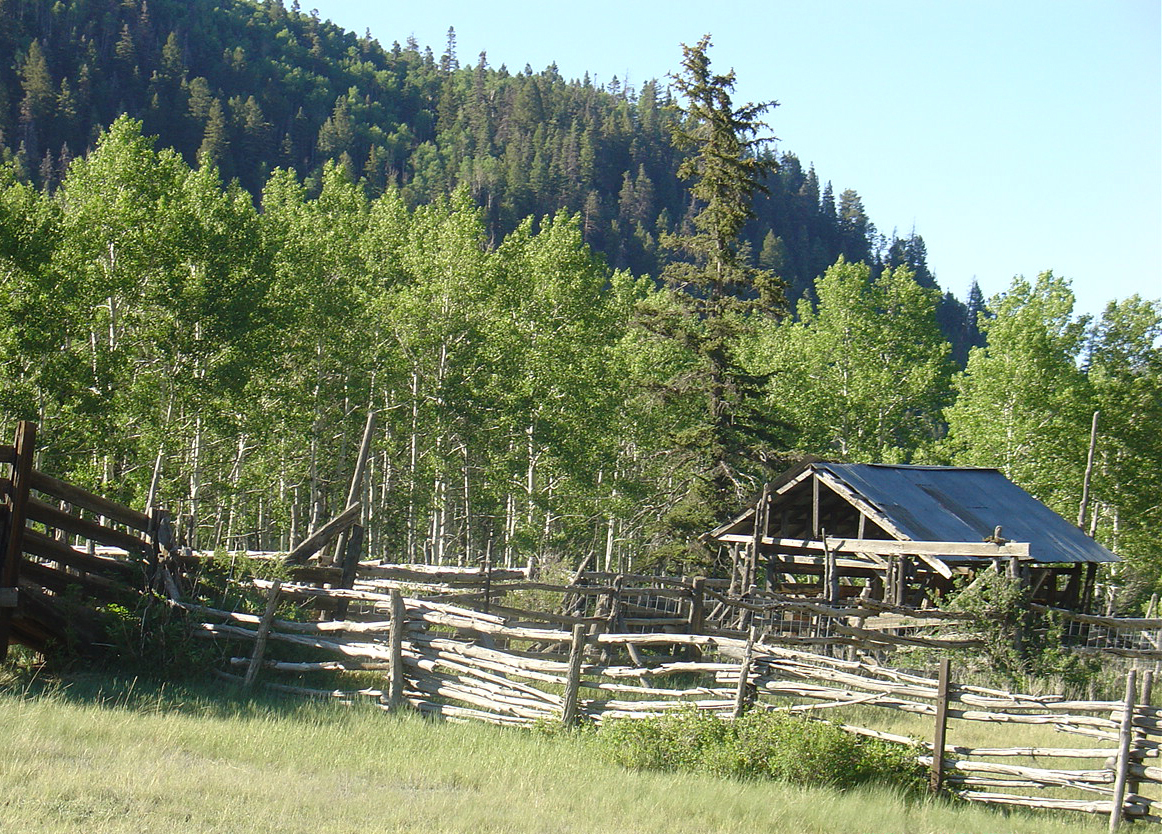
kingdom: Plantae
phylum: Tracheophyta
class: Magnoliopsida
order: Malpighiales
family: Salicaceae
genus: Populus
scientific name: Populus tremuloides
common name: Quaking aspen
